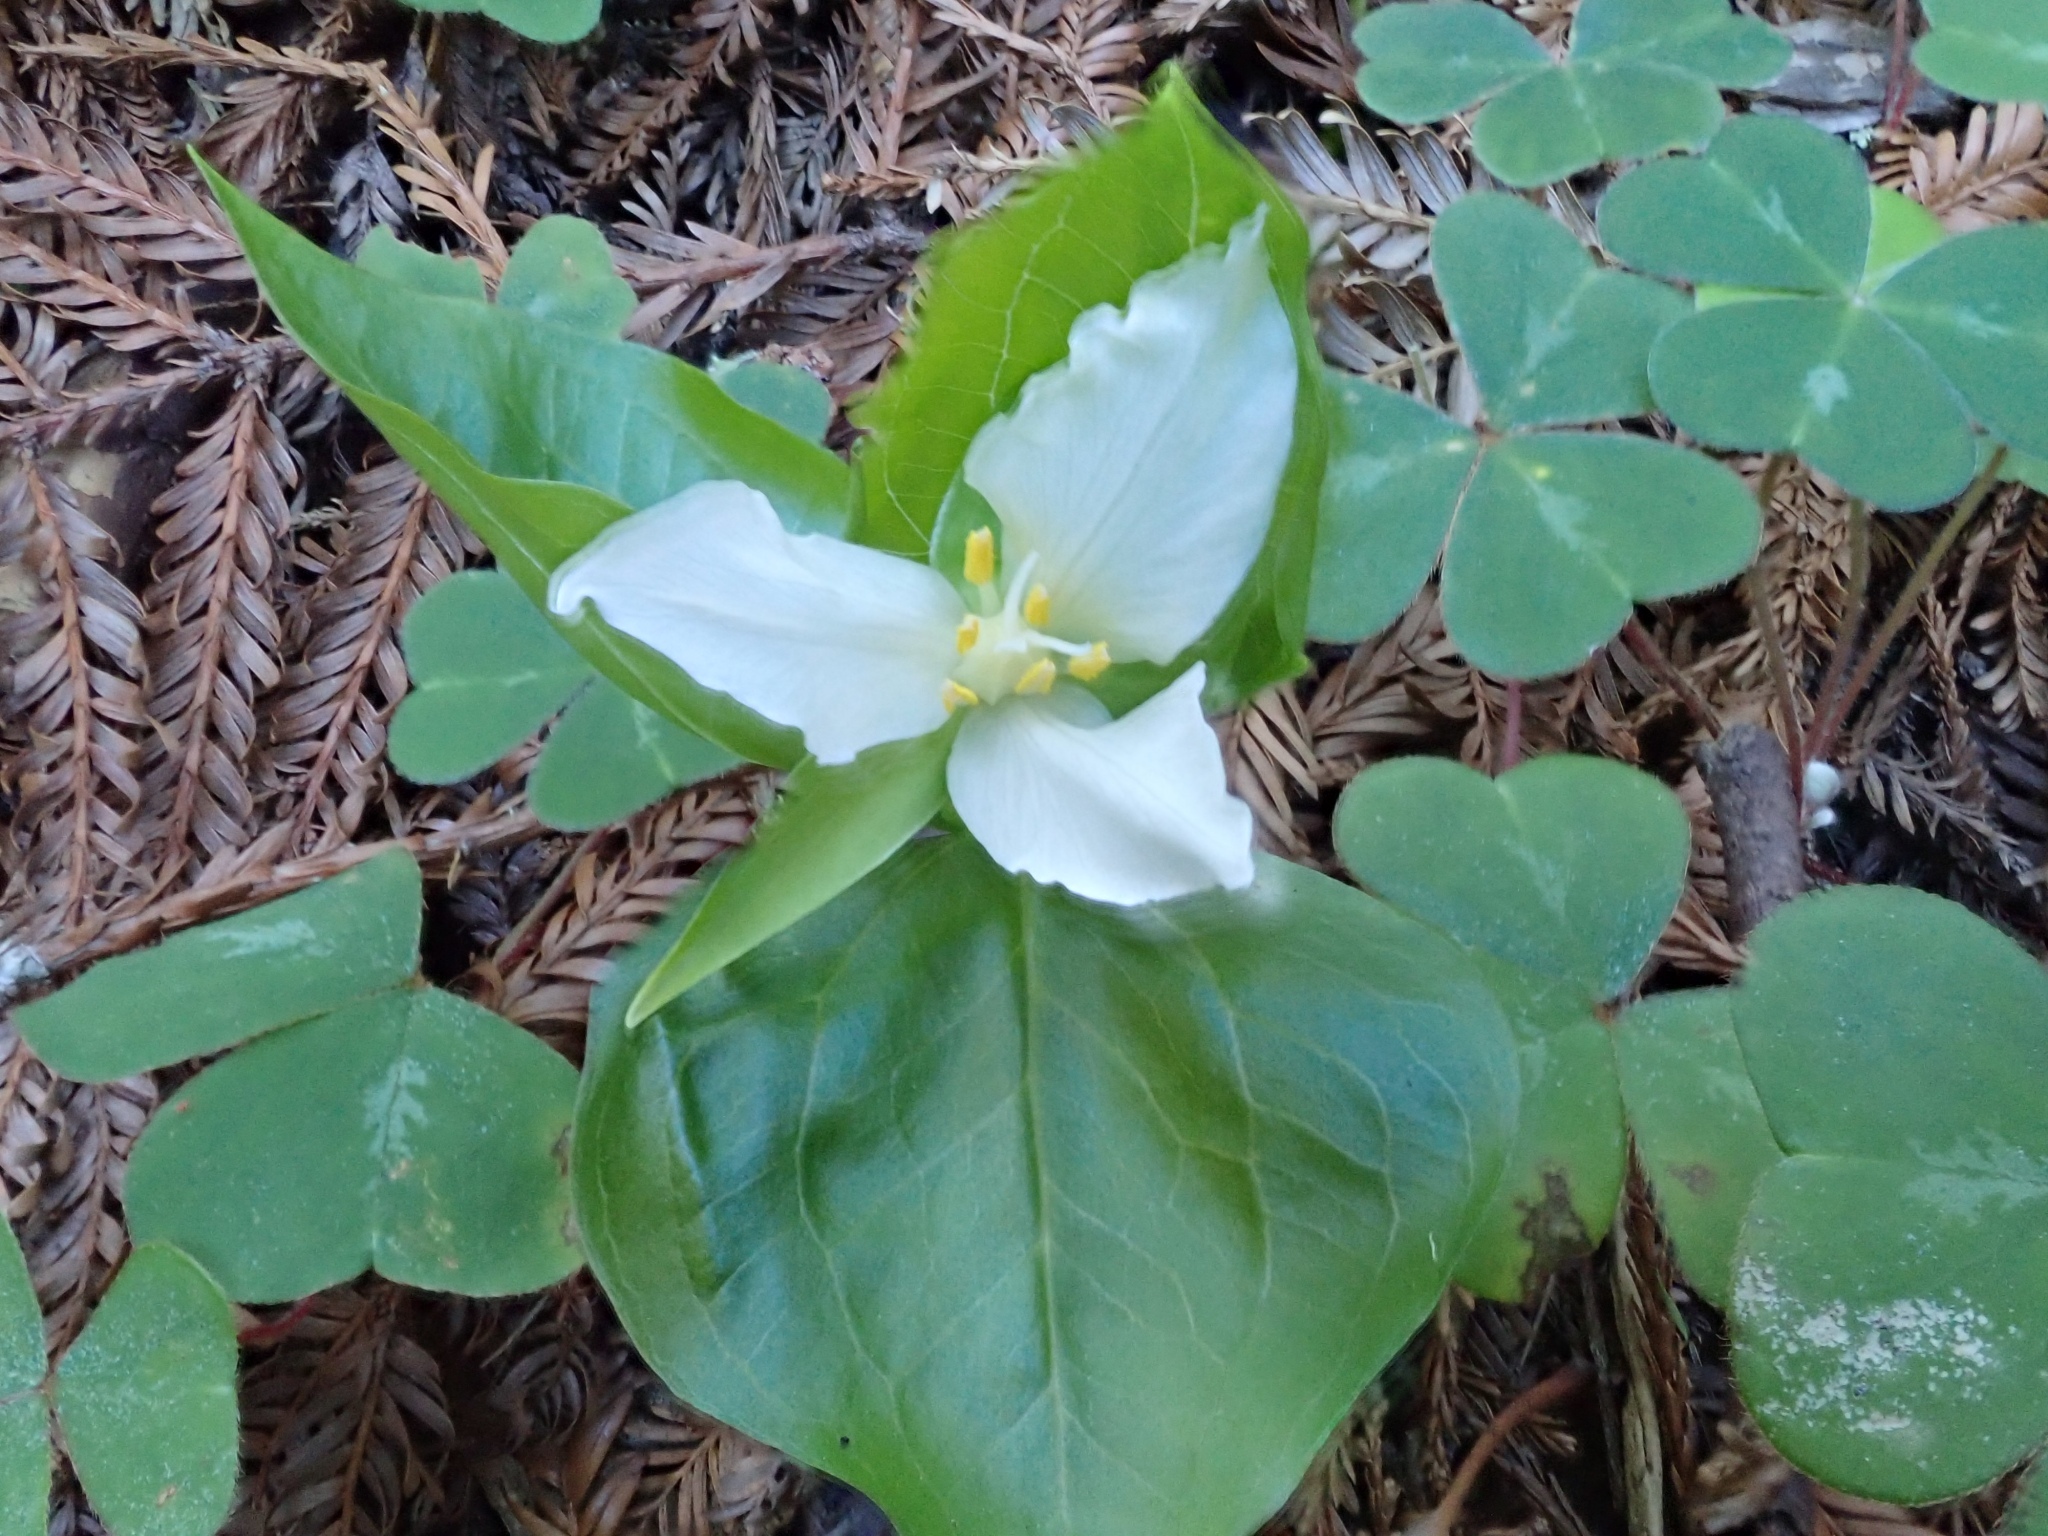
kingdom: Plantae
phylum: Tracheophyta
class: Liliopsida
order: Liliales
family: Melanthiaceae
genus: Trillium
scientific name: Trillium ovatum
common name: Pacific trillium
